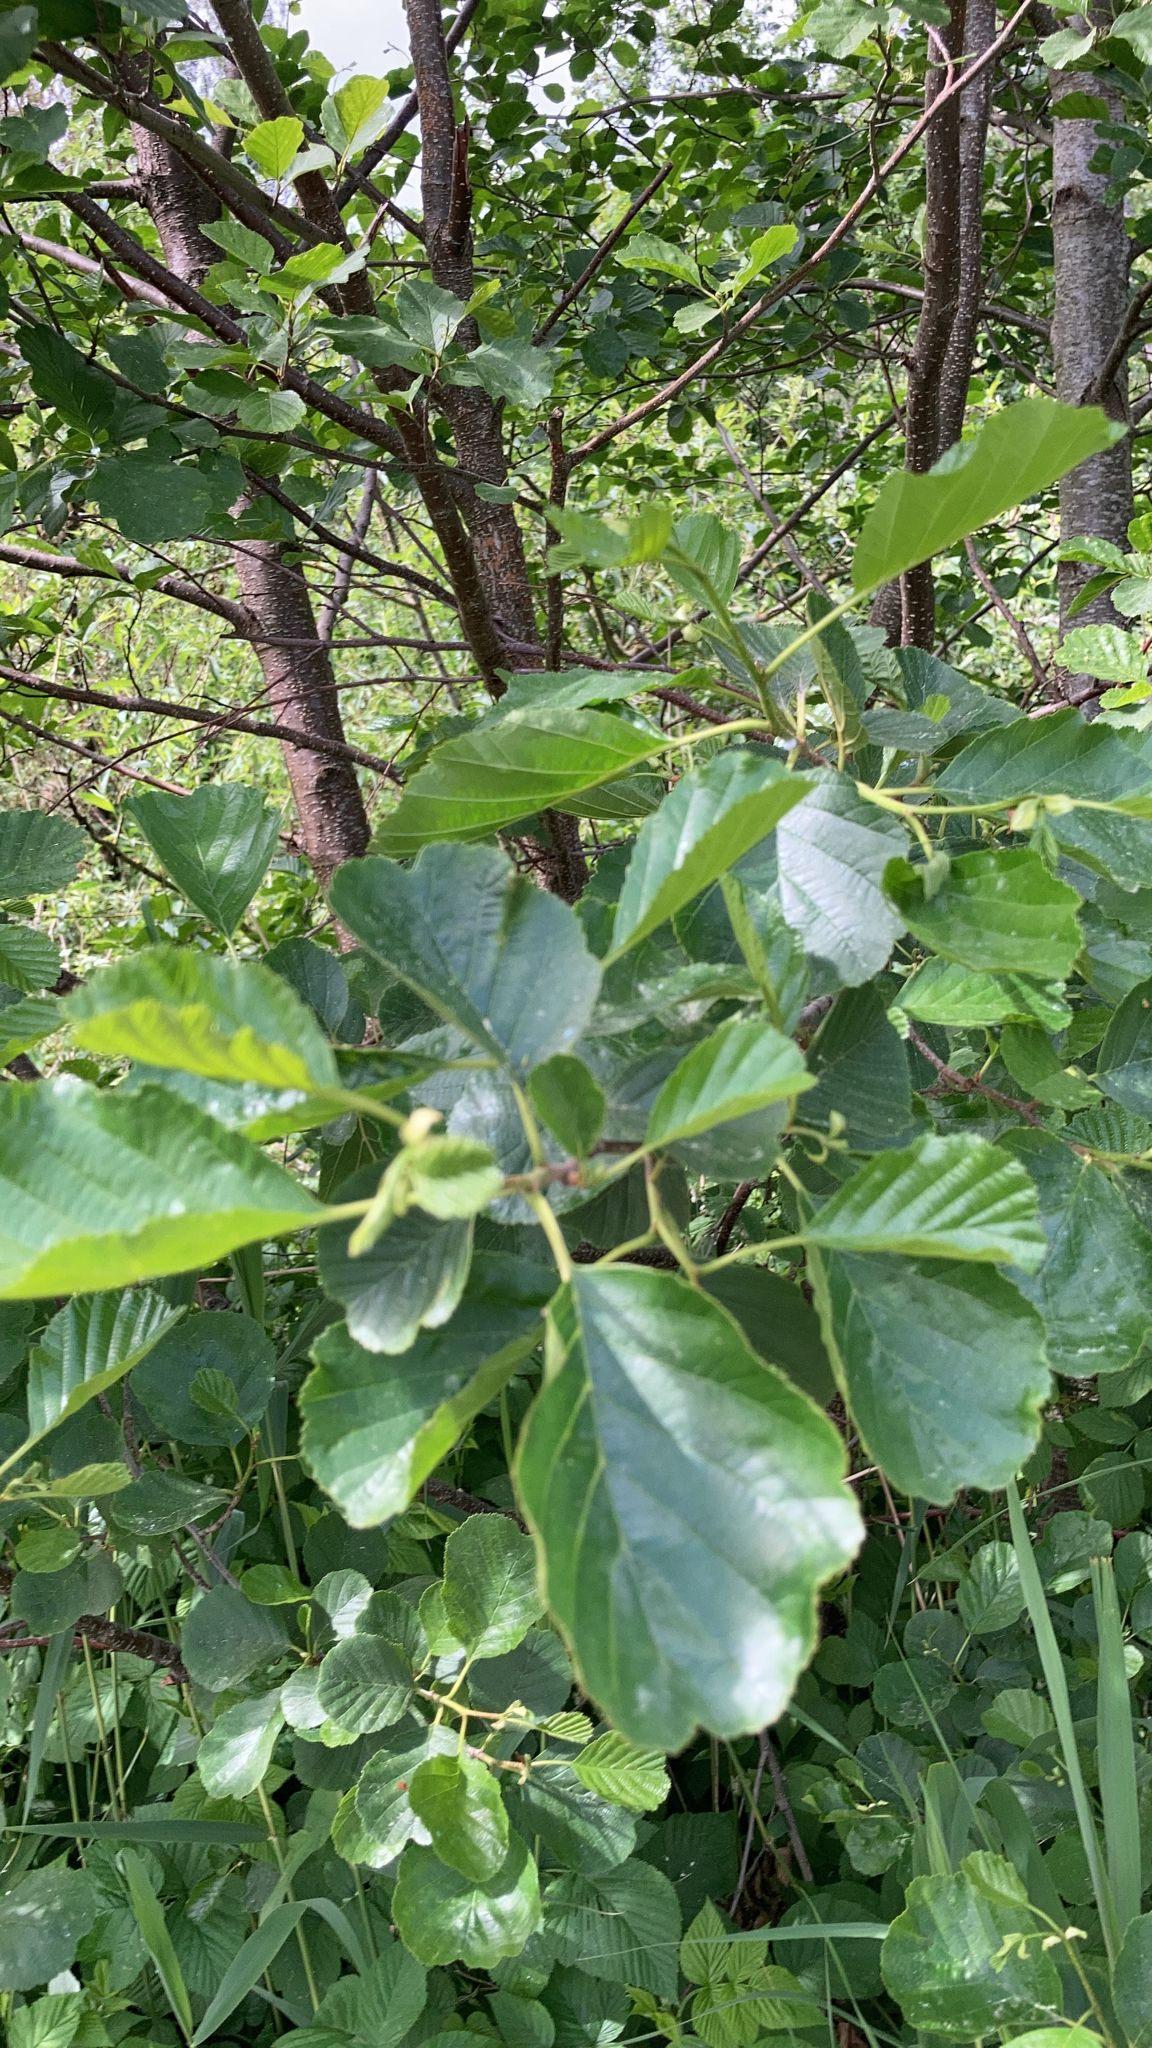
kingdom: Plantae
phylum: Tracheophyta
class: Magnoliopsida
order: Fagales
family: Betulaceae
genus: Alnus
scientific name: Alnus glutinosa
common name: Black alder
